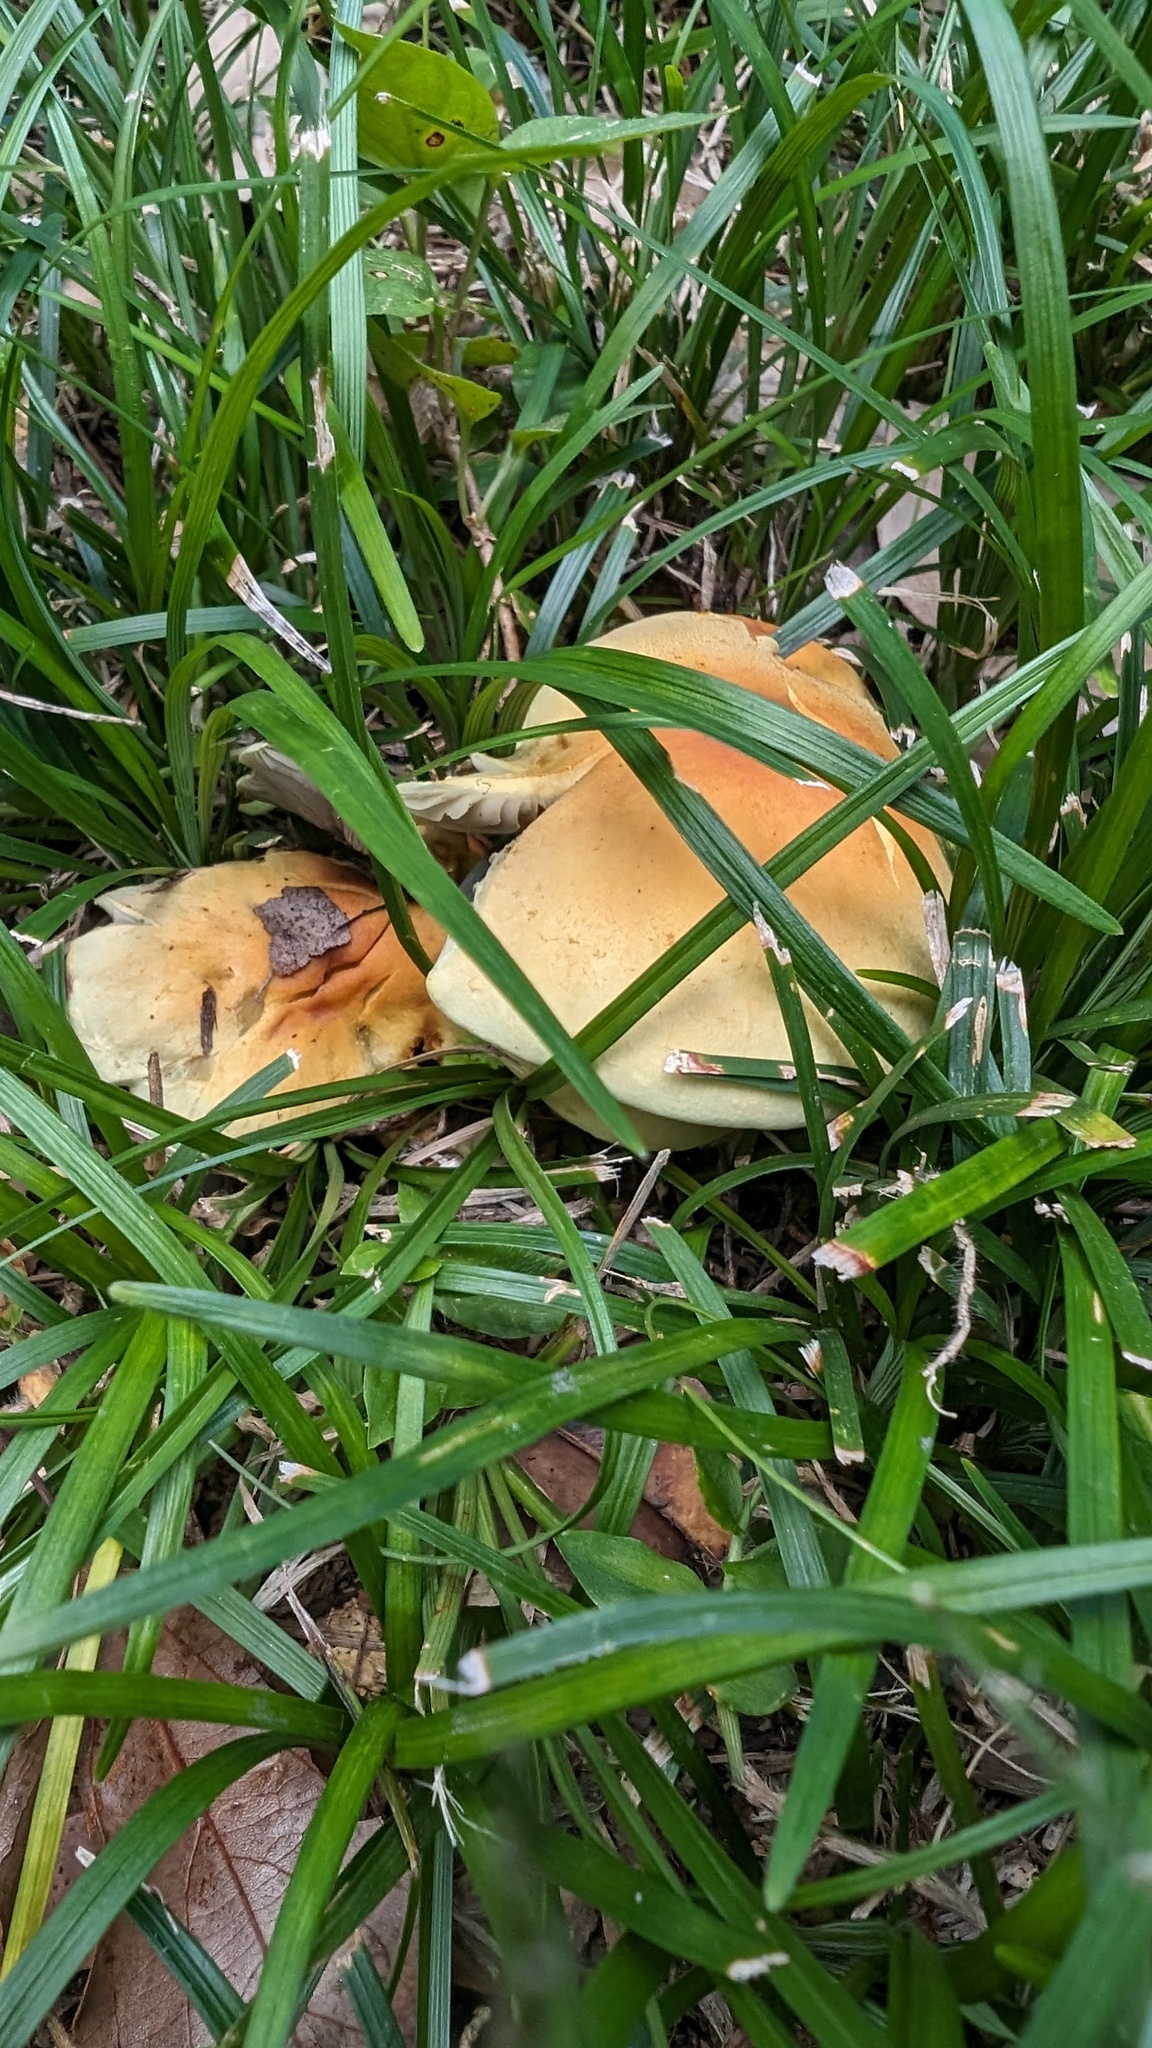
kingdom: Fungi
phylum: Basidiomycota
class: Agaricomycetes
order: Agaricales
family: Strophariaceae
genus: Hypholoma
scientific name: Hypholoma fasciculare
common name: Sulphur tuft
